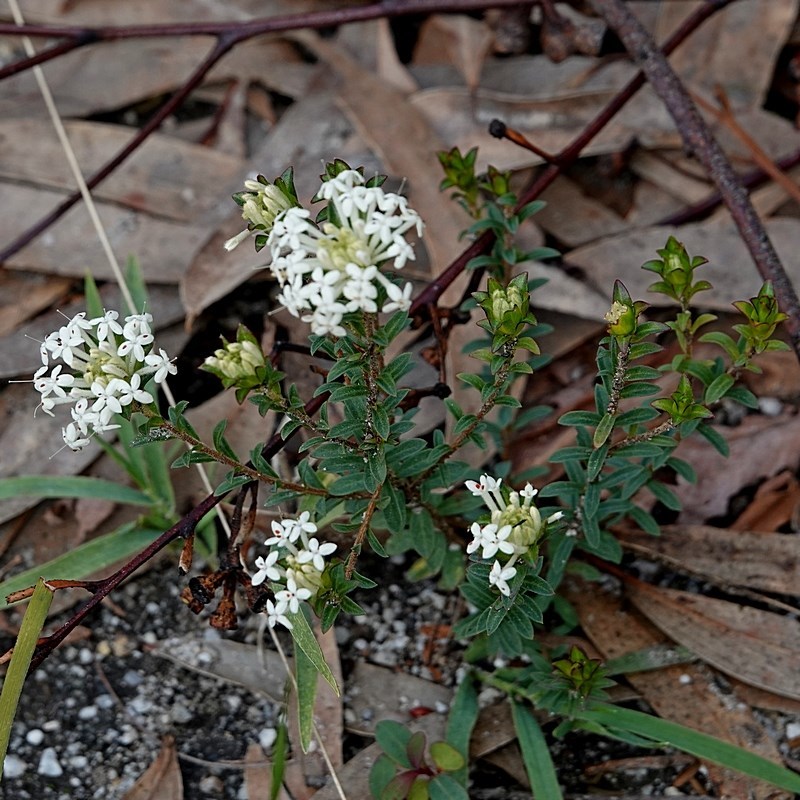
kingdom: Plantae
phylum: Tracheophyta
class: Magnoliopsida
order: Malvales
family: Thymelaeaceae
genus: Pimelea
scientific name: Pimelea linifolia
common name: Queen-of-the-bush
